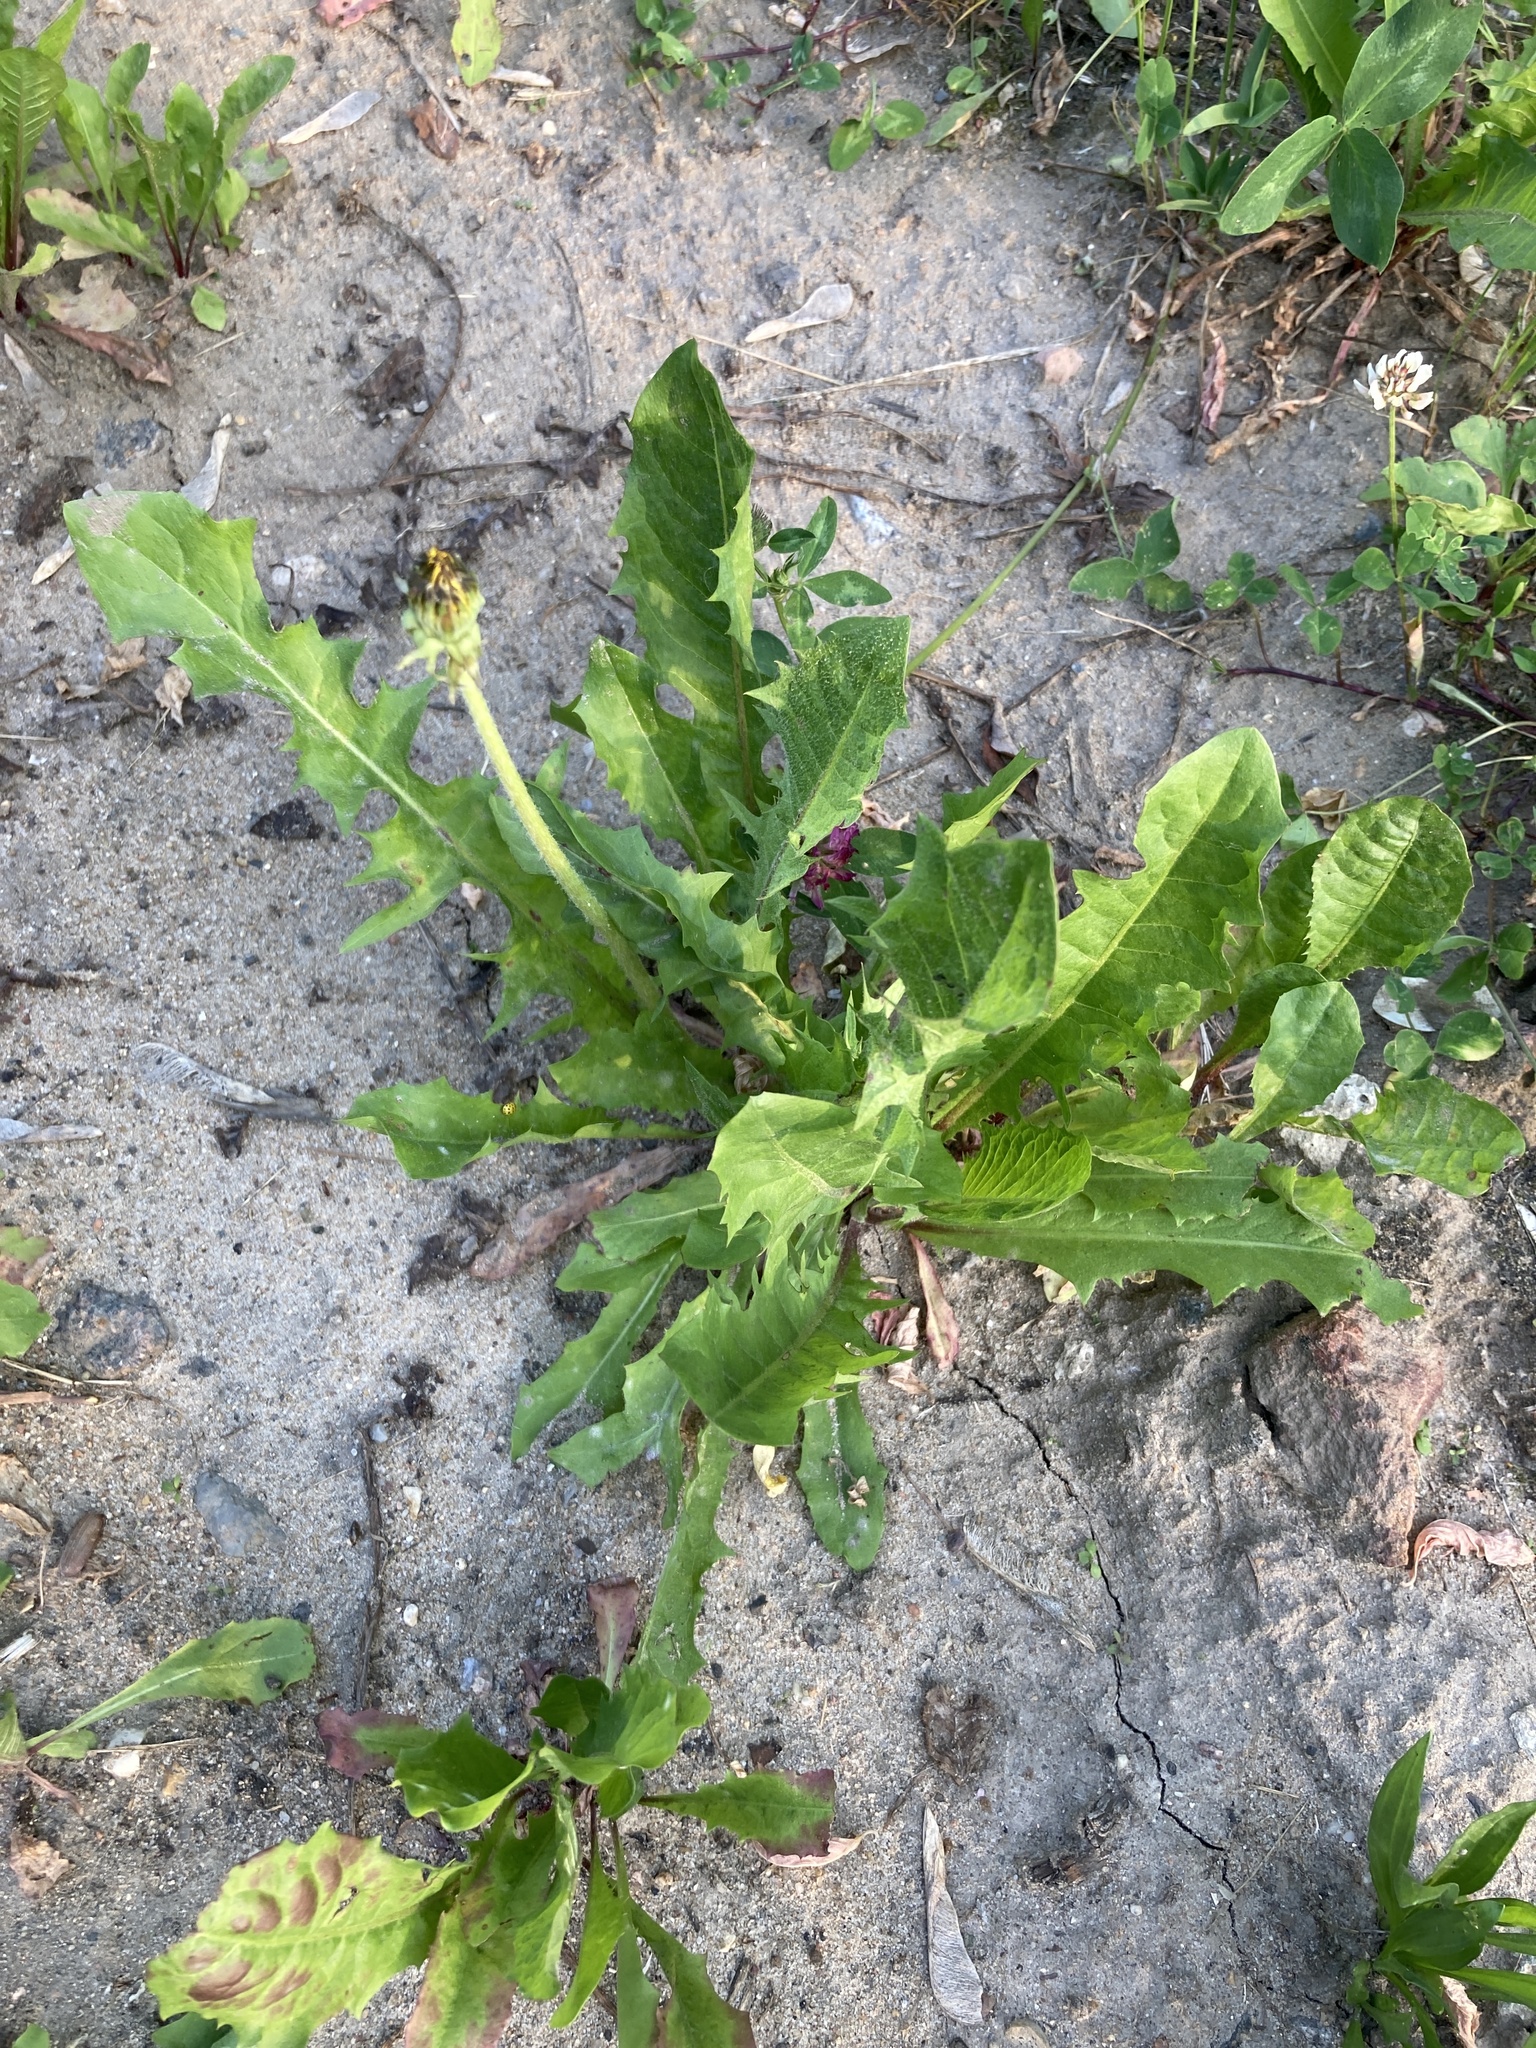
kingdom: Plantae
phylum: Tracheophyta
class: Magnoliopsida
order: Asterales
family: Asteraceae
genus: Taraxacum
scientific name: Taraxacum officinale
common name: Common dandelion
